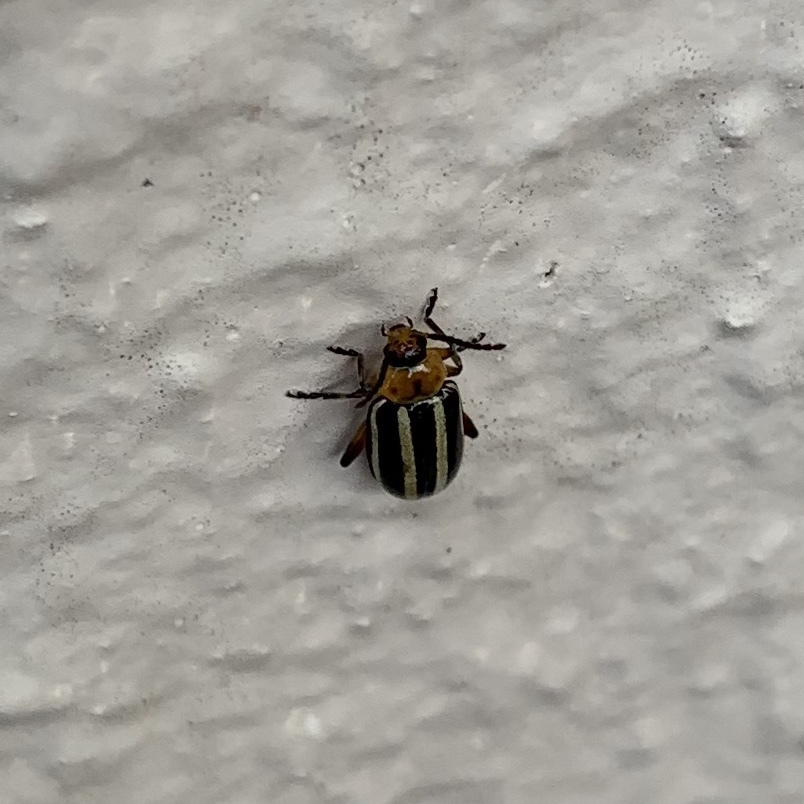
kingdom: Animalia
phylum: Arthropoda
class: Insecta
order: Coleoptera
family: Chrysomelidae
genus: Disonycha
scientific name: Disonycha glabrata
